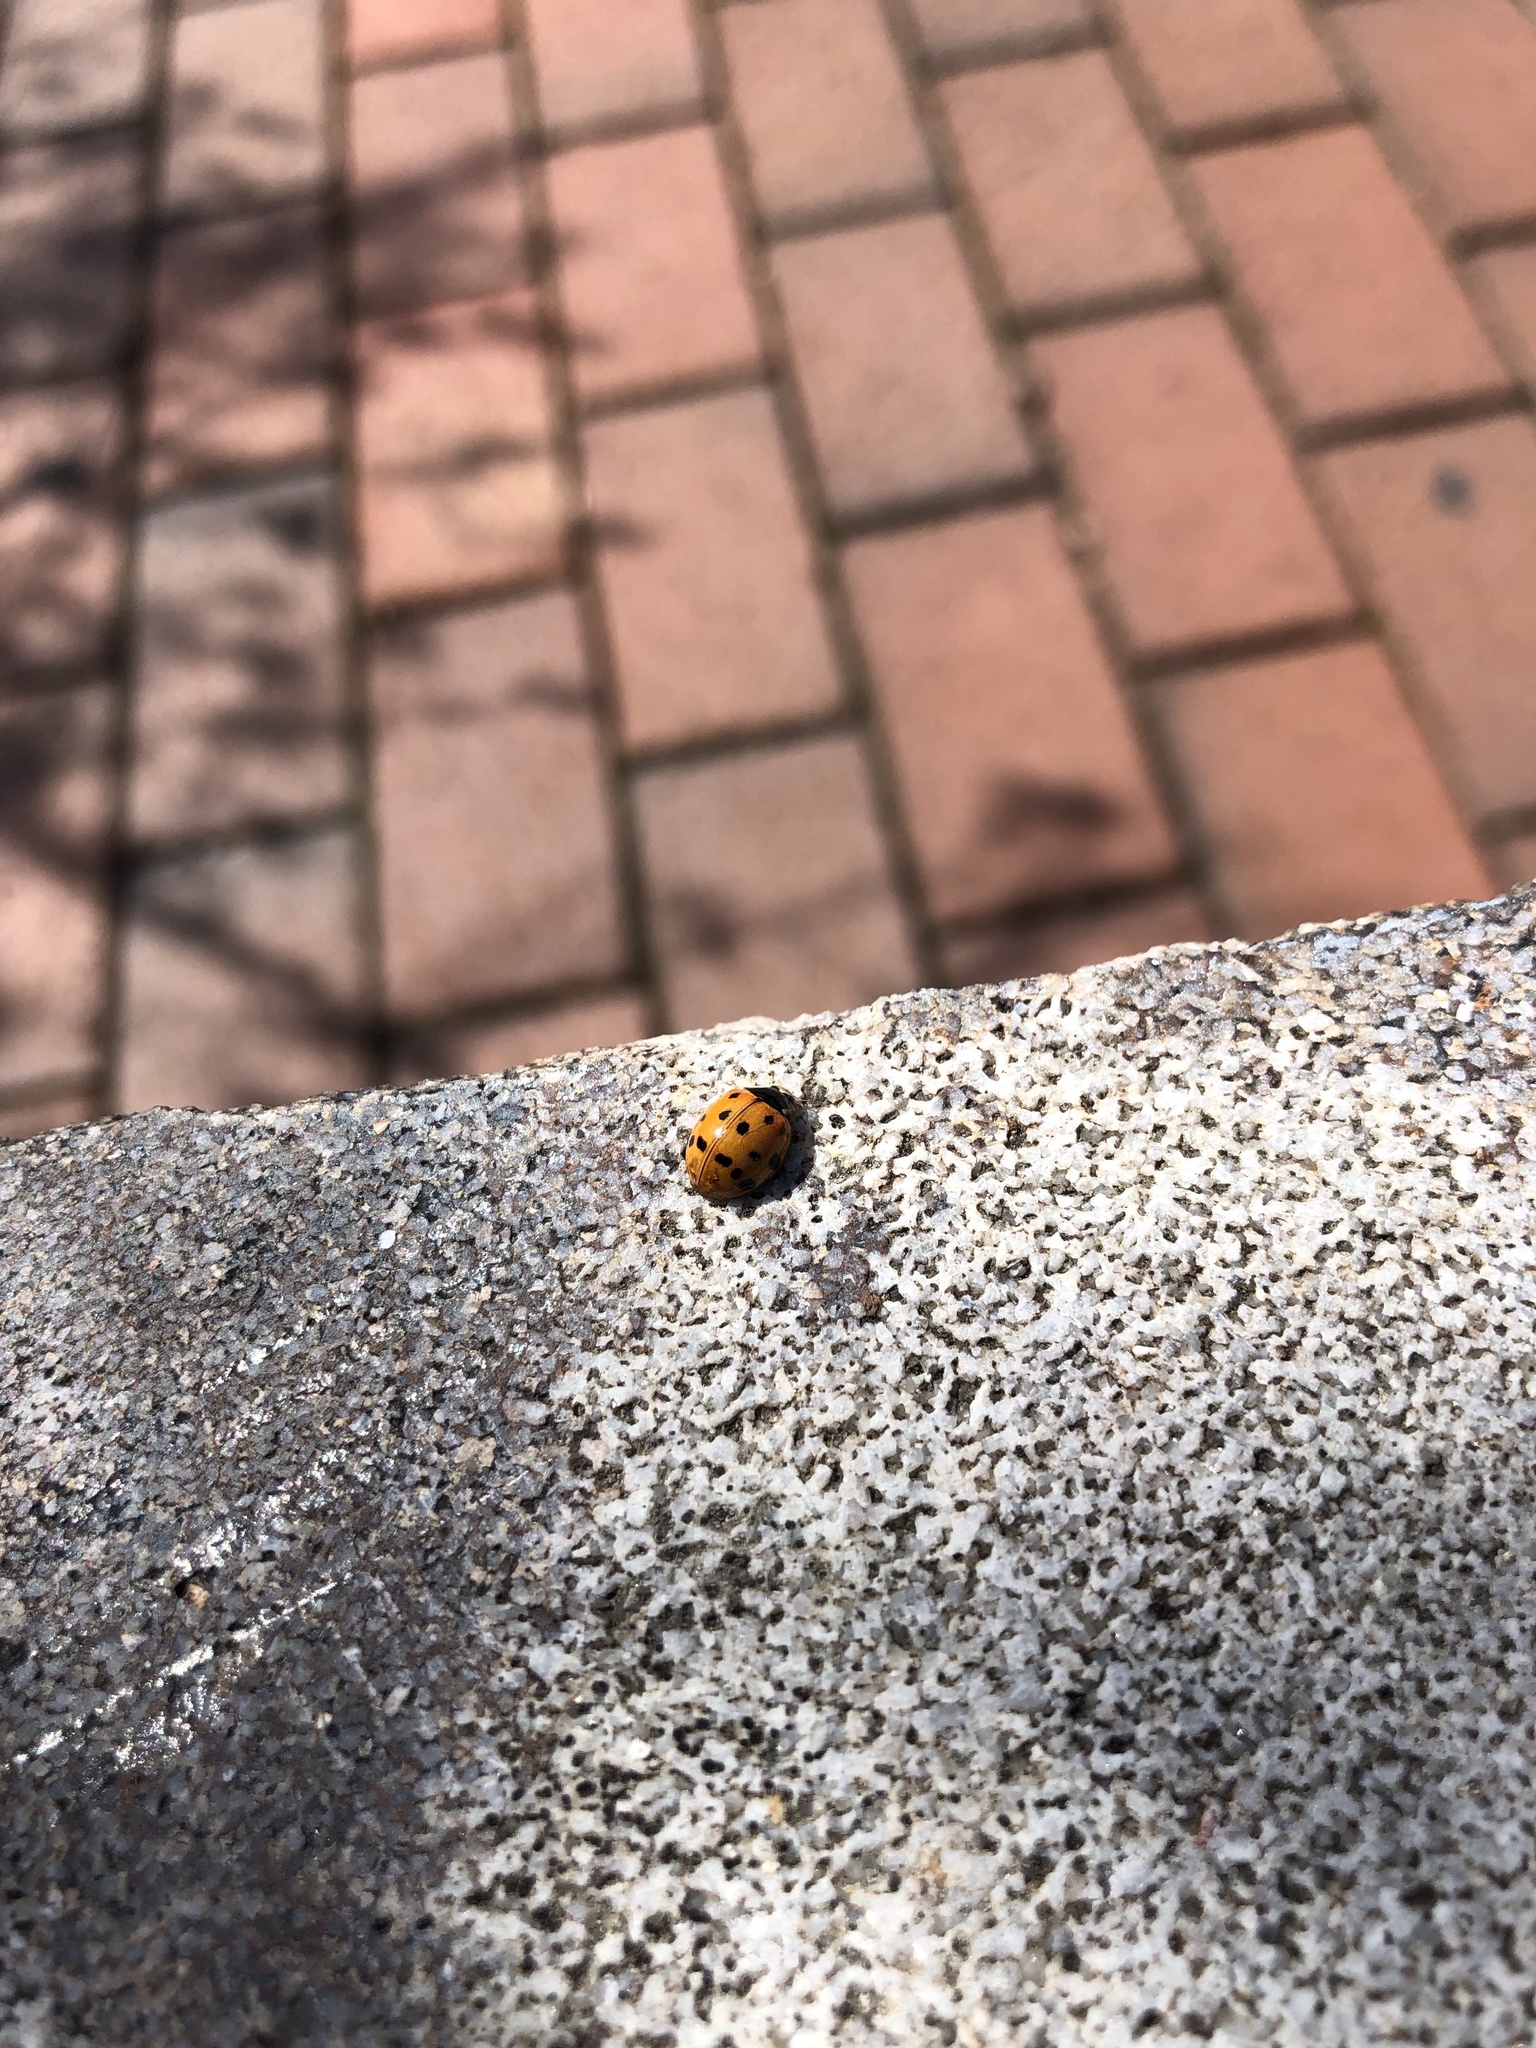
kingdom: Animalia
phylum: Arthropoda
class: Insecta
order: Coleoptera
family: Coccinellidae
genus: Harmonia
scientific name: Harmonia axyridis
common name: Harlequin ladybird
